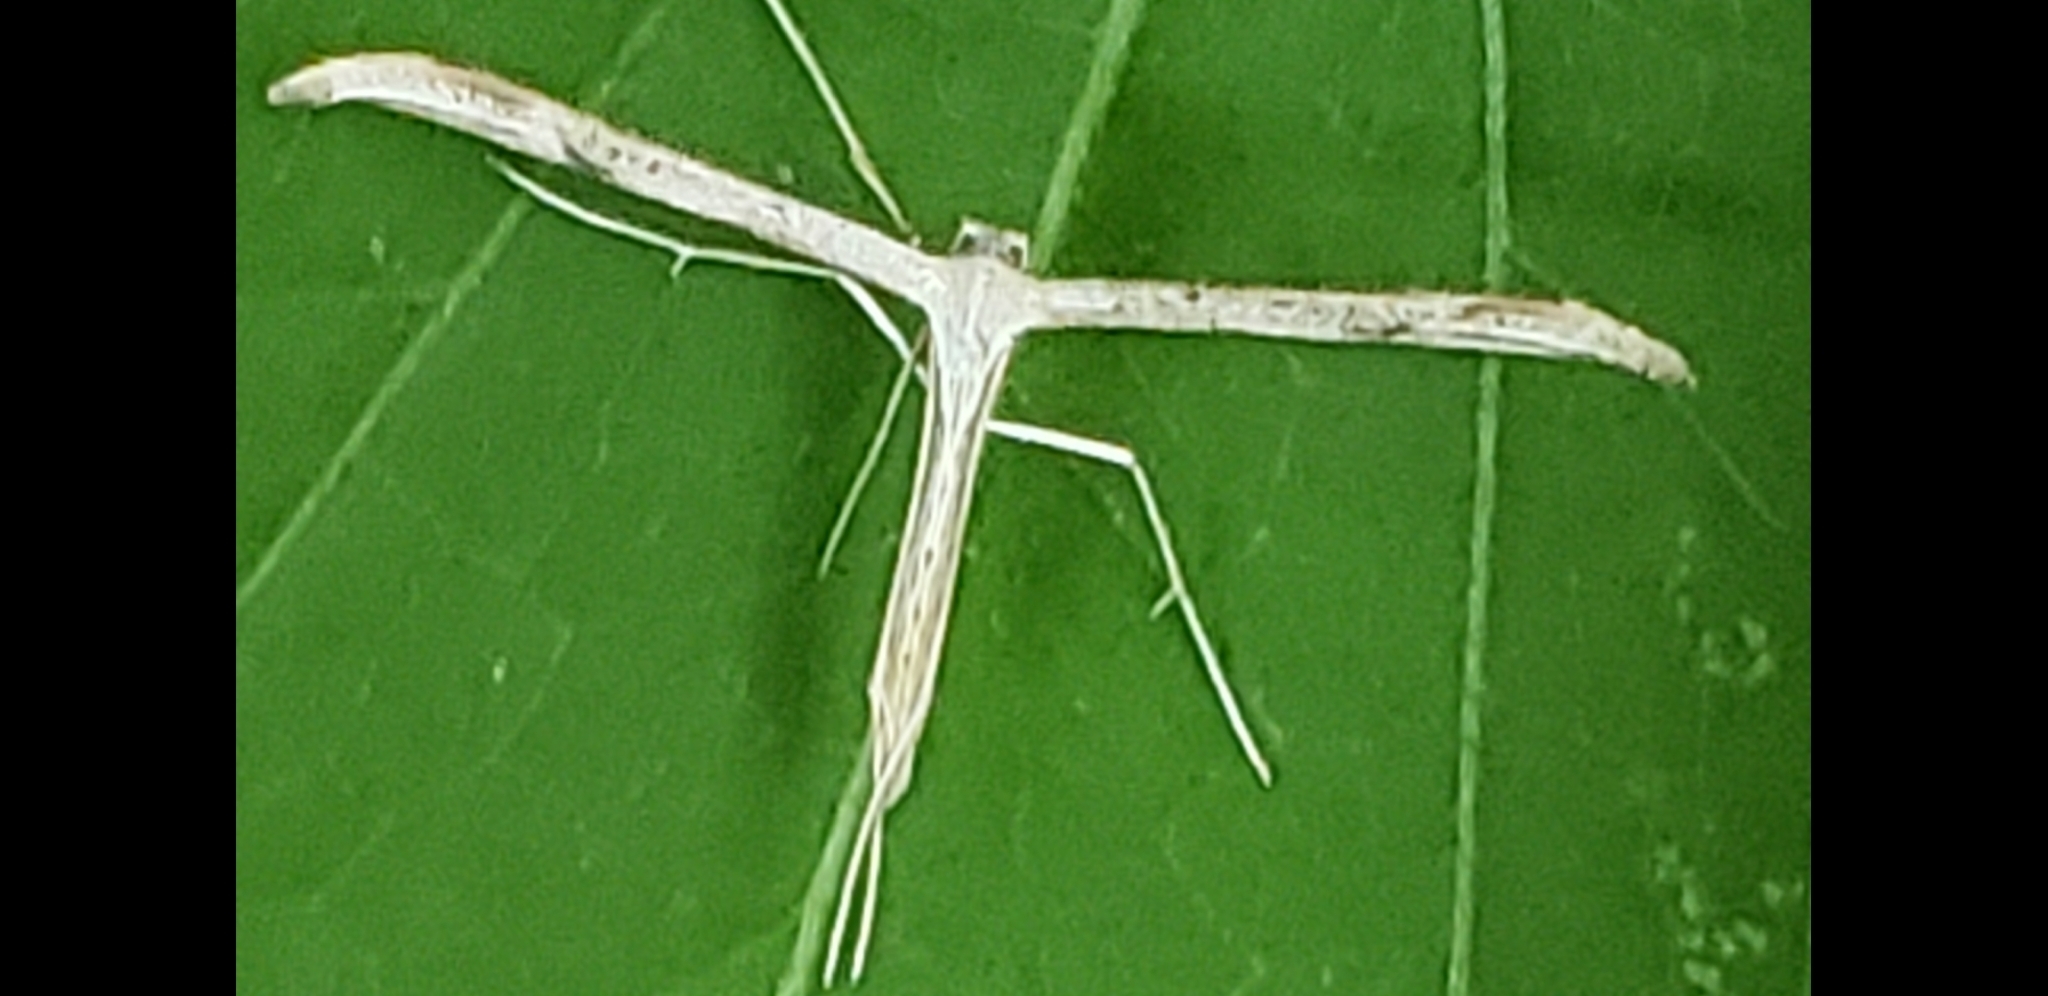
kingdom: Animalia
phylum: Arthropoda
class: Insecta
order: Lepidoptera
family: Pterophoridae
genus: Emmelina
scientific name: Emmelina monodactyla
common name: Common plume
